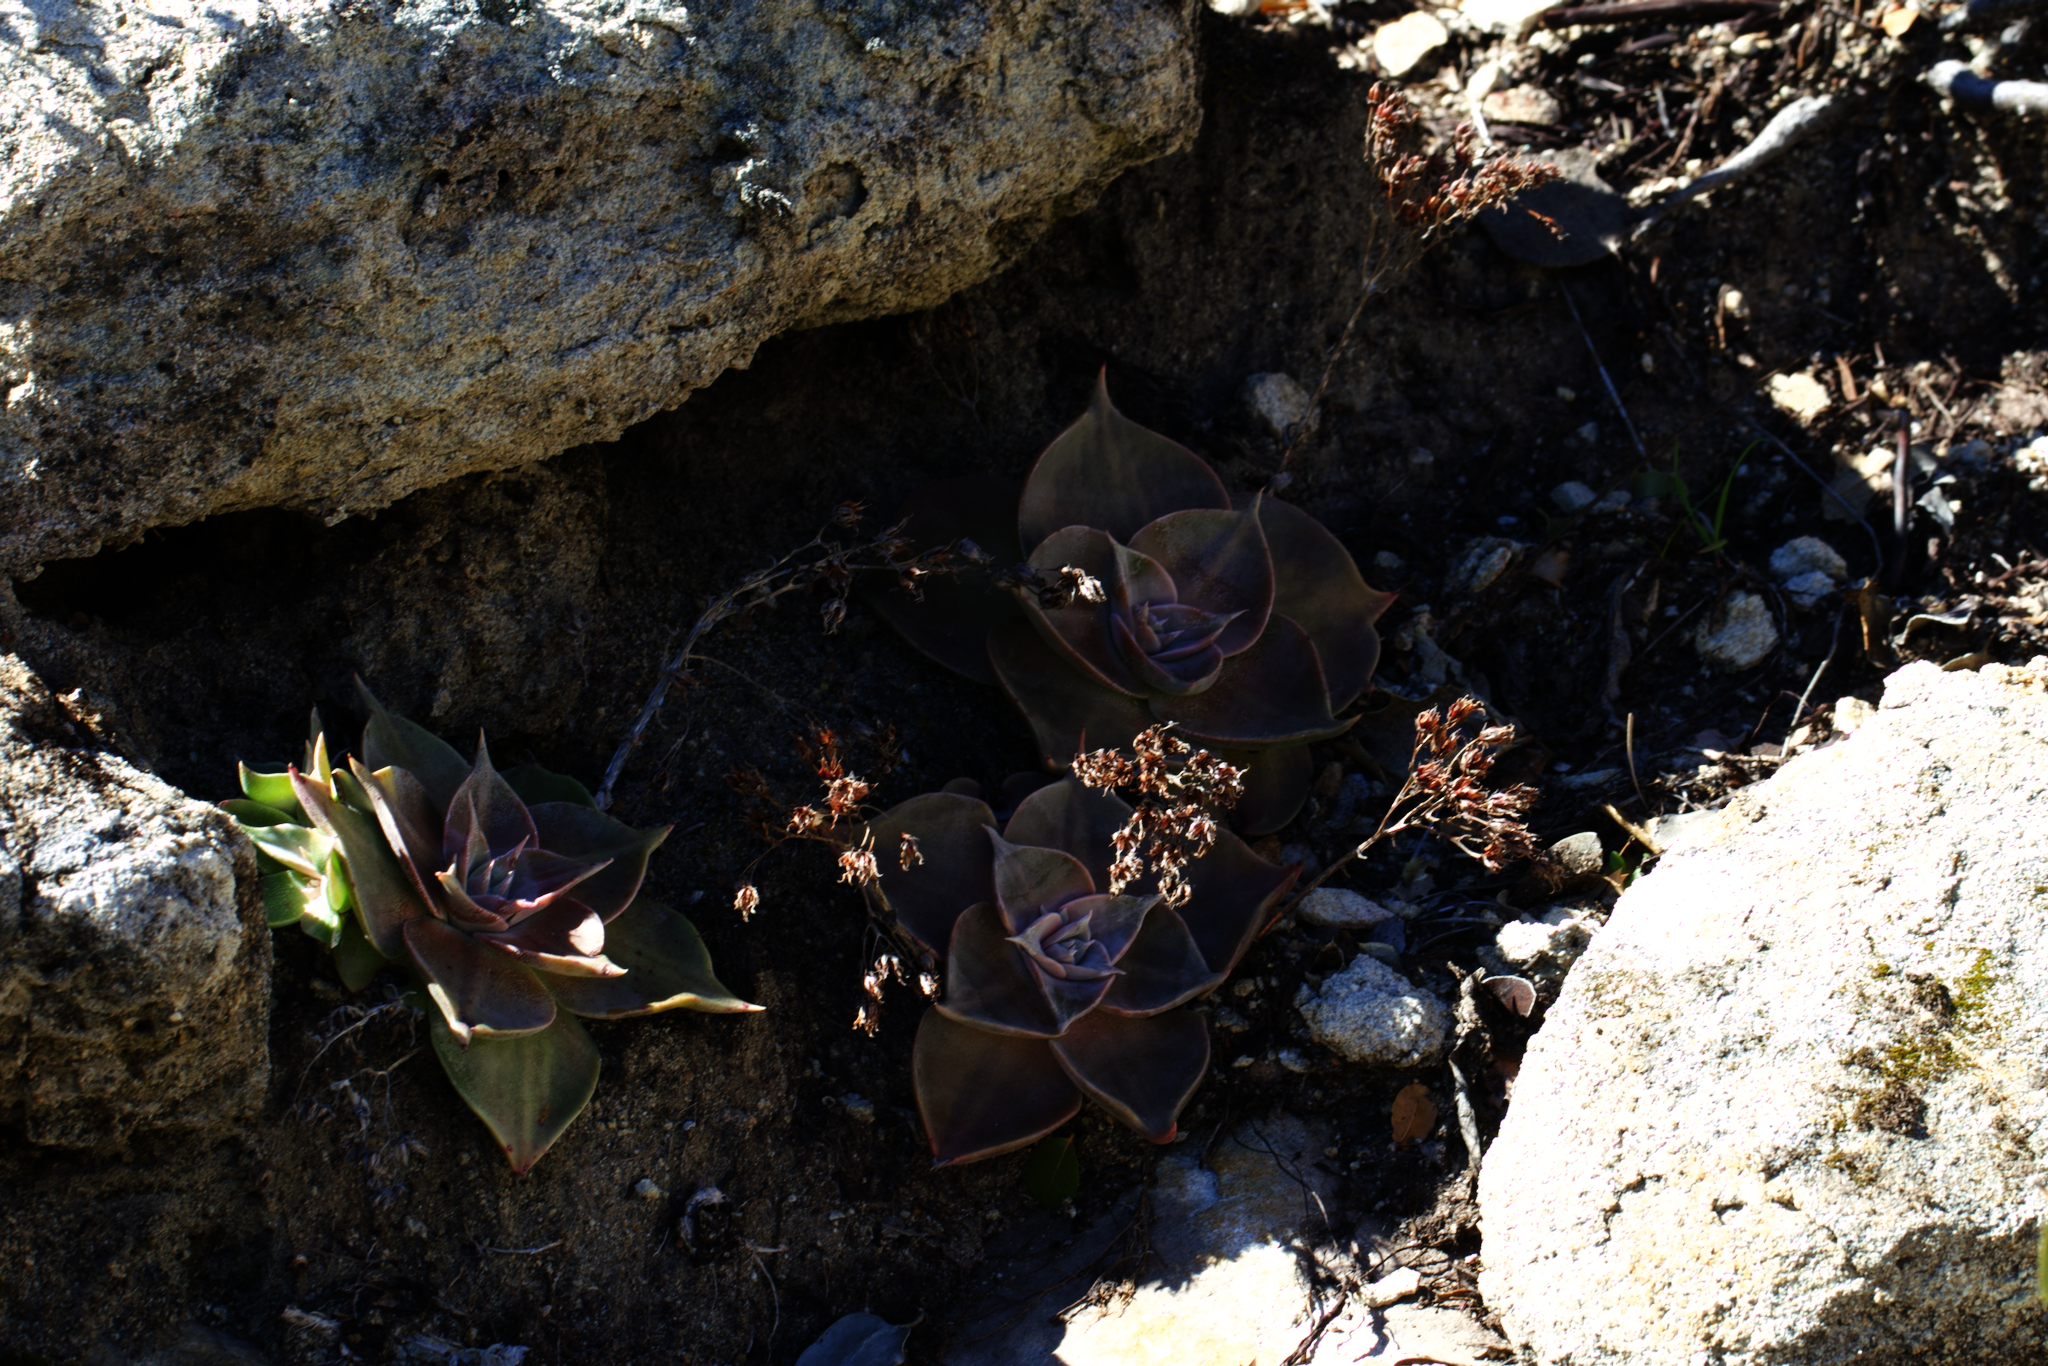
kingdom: Plantae
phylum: Tracheophyta
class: Magnoliopsida
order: Saxifragales
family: Crassulaceae
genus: Dudleya
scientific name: Dudleya cymosa
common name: Canyon dudleya
